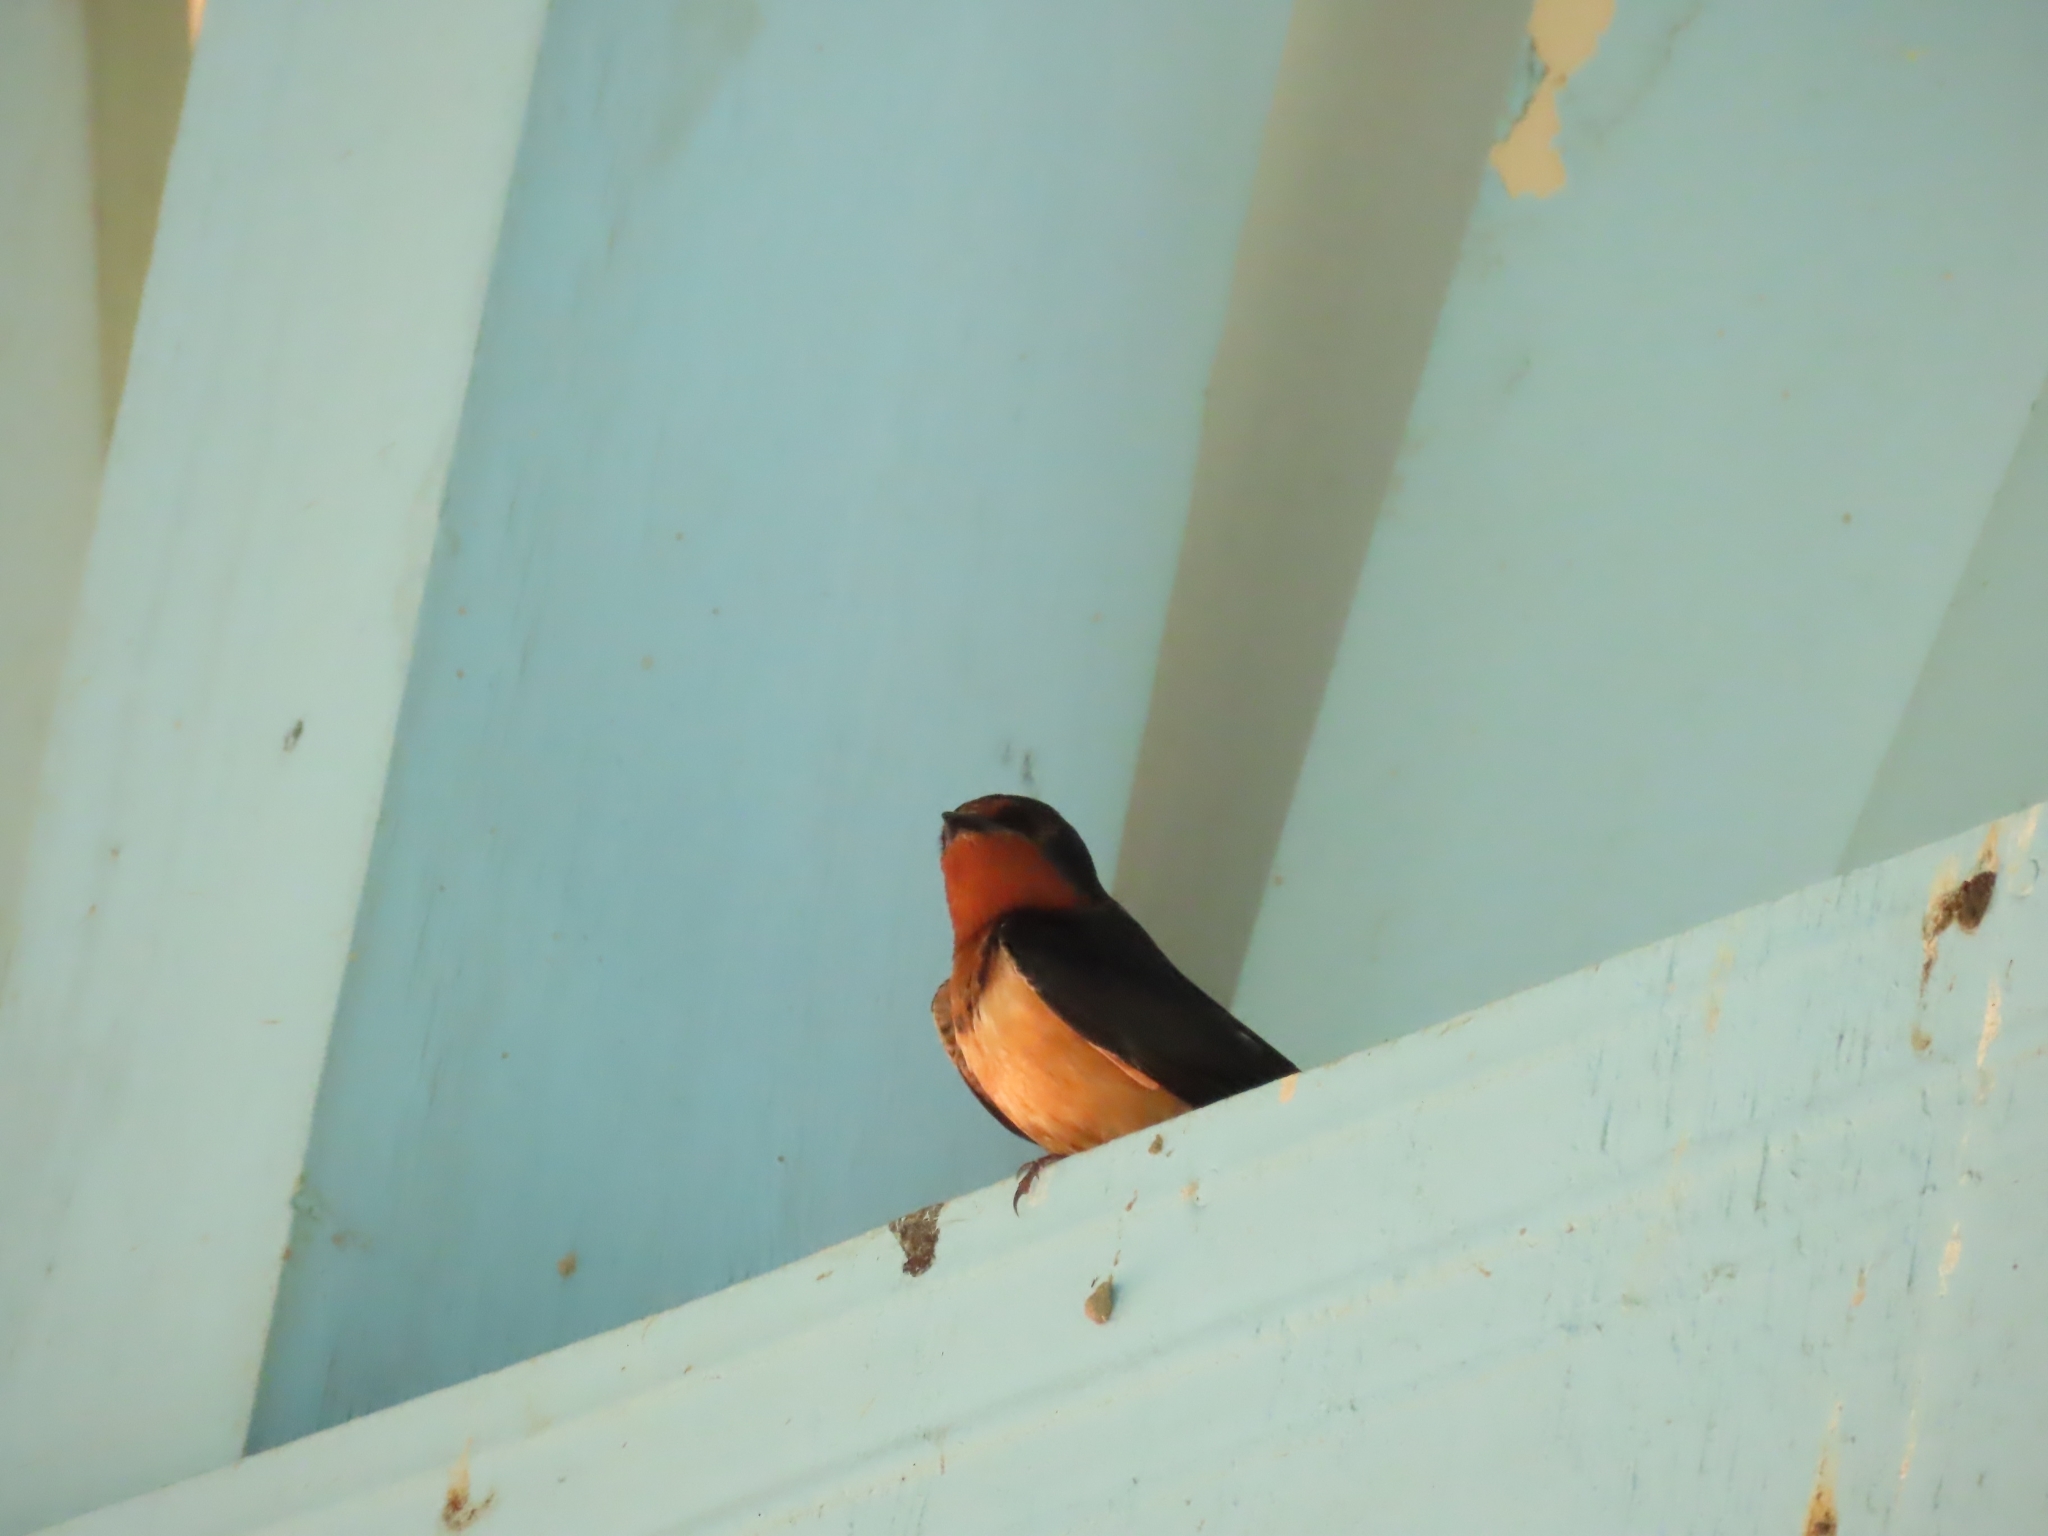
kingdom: Animalia
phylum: Chordata
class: Aves
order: Passeriformes
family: Hirundinidae
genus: Hirundo
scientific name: Hirundo rustica
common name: Barn swallow
